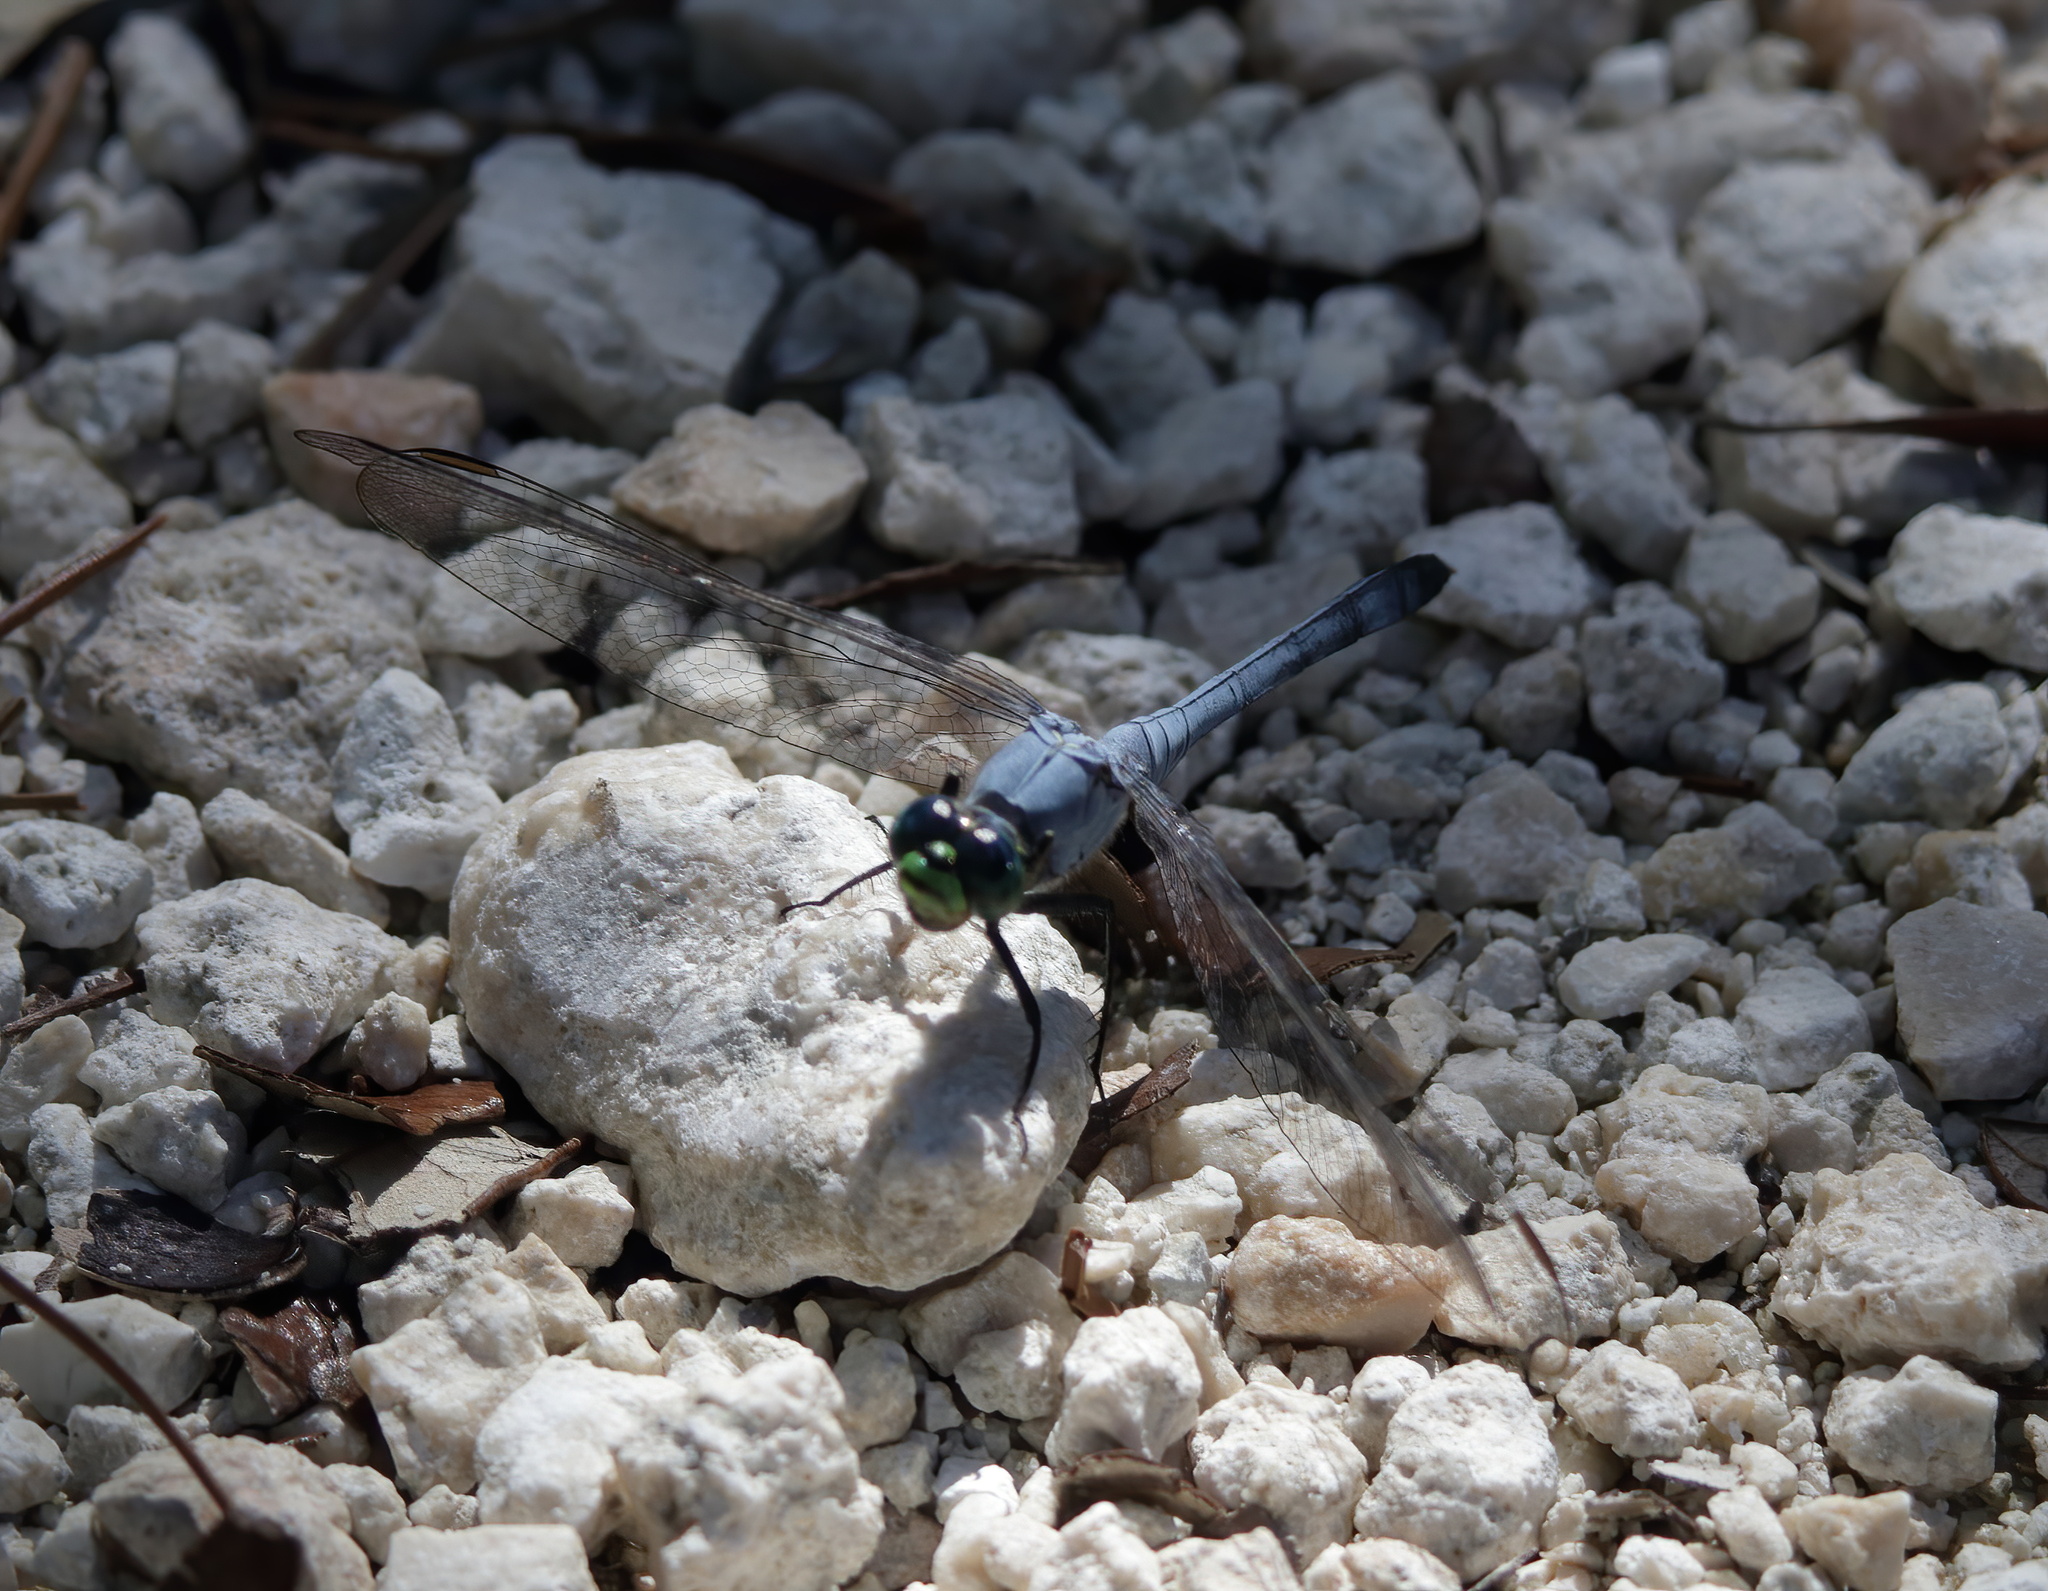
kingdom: Animalia
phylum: Arthropoda
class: Insecta
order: Odonata
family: Libellulidae
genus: Erythemis
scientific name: Erythemis simplicicollis
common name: Eastern pondhawk
